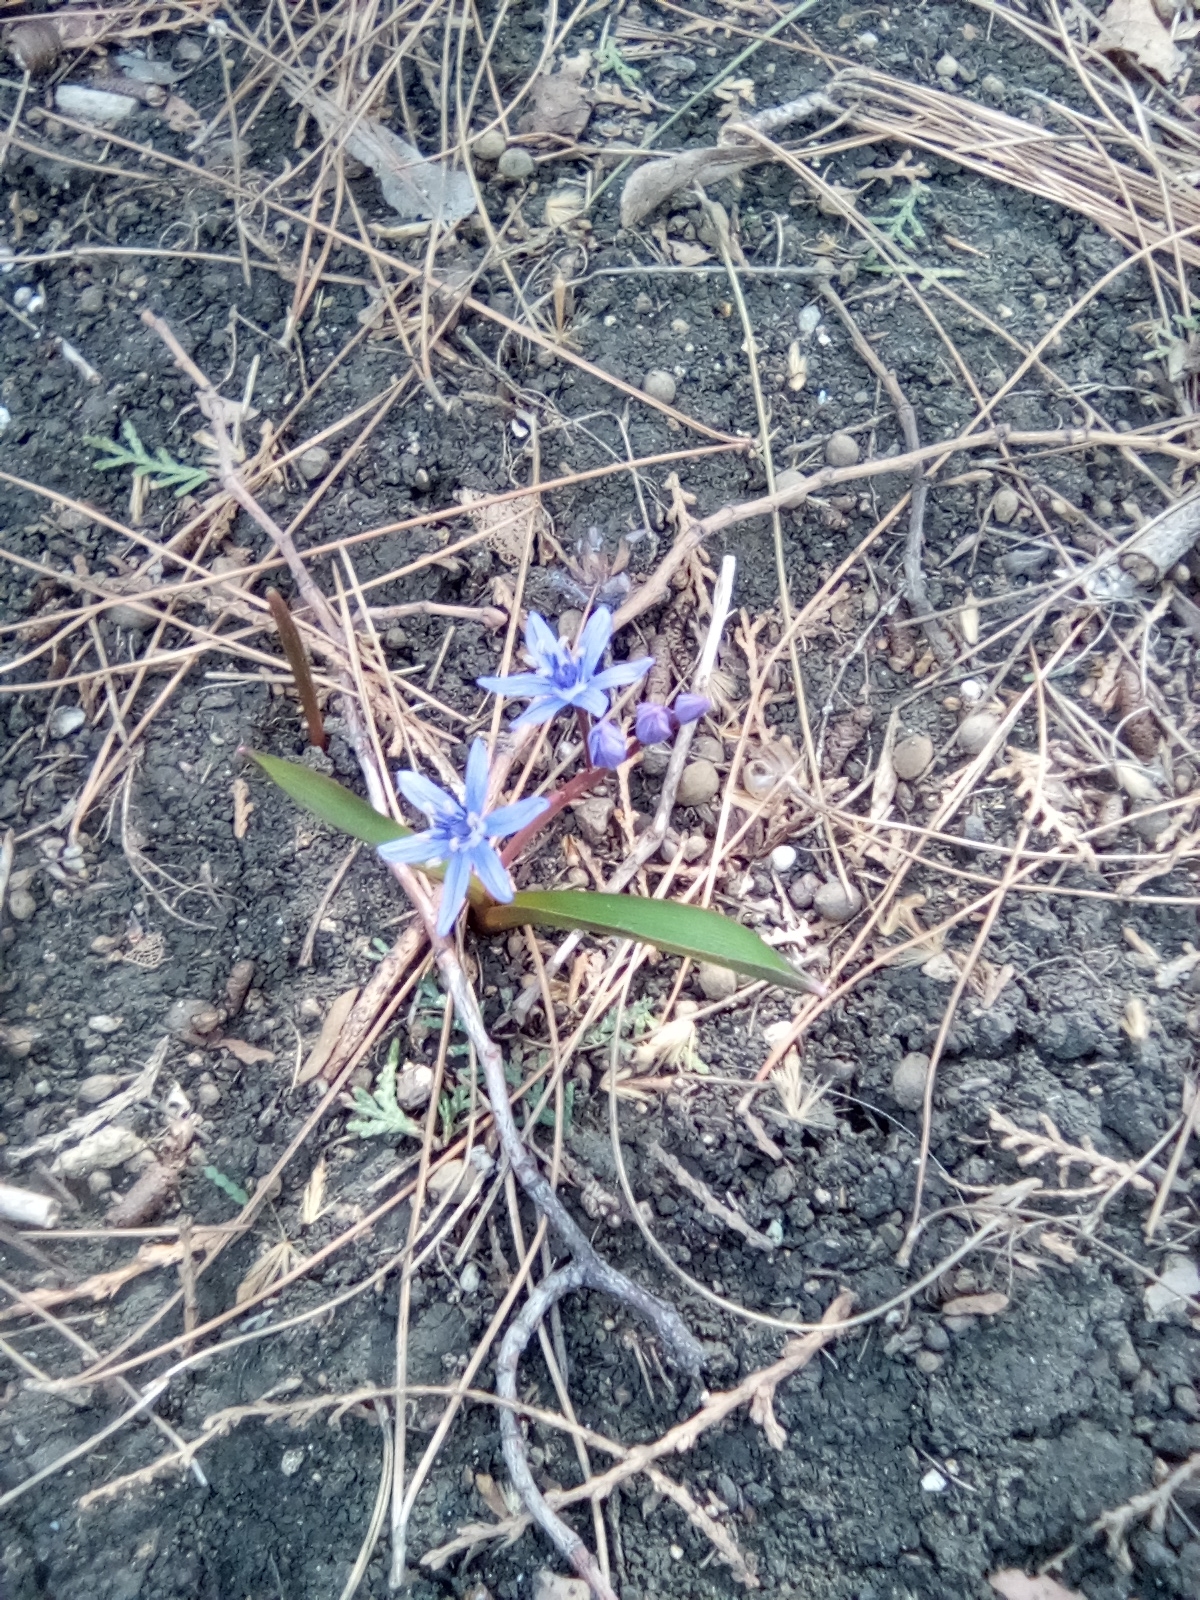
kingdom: Plantae
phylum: Tracheophyta
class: Liliopsida
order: Asparagales
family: Asparagaceae
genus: Scilla
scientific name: Scilla bifolia
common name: Alpine squill
